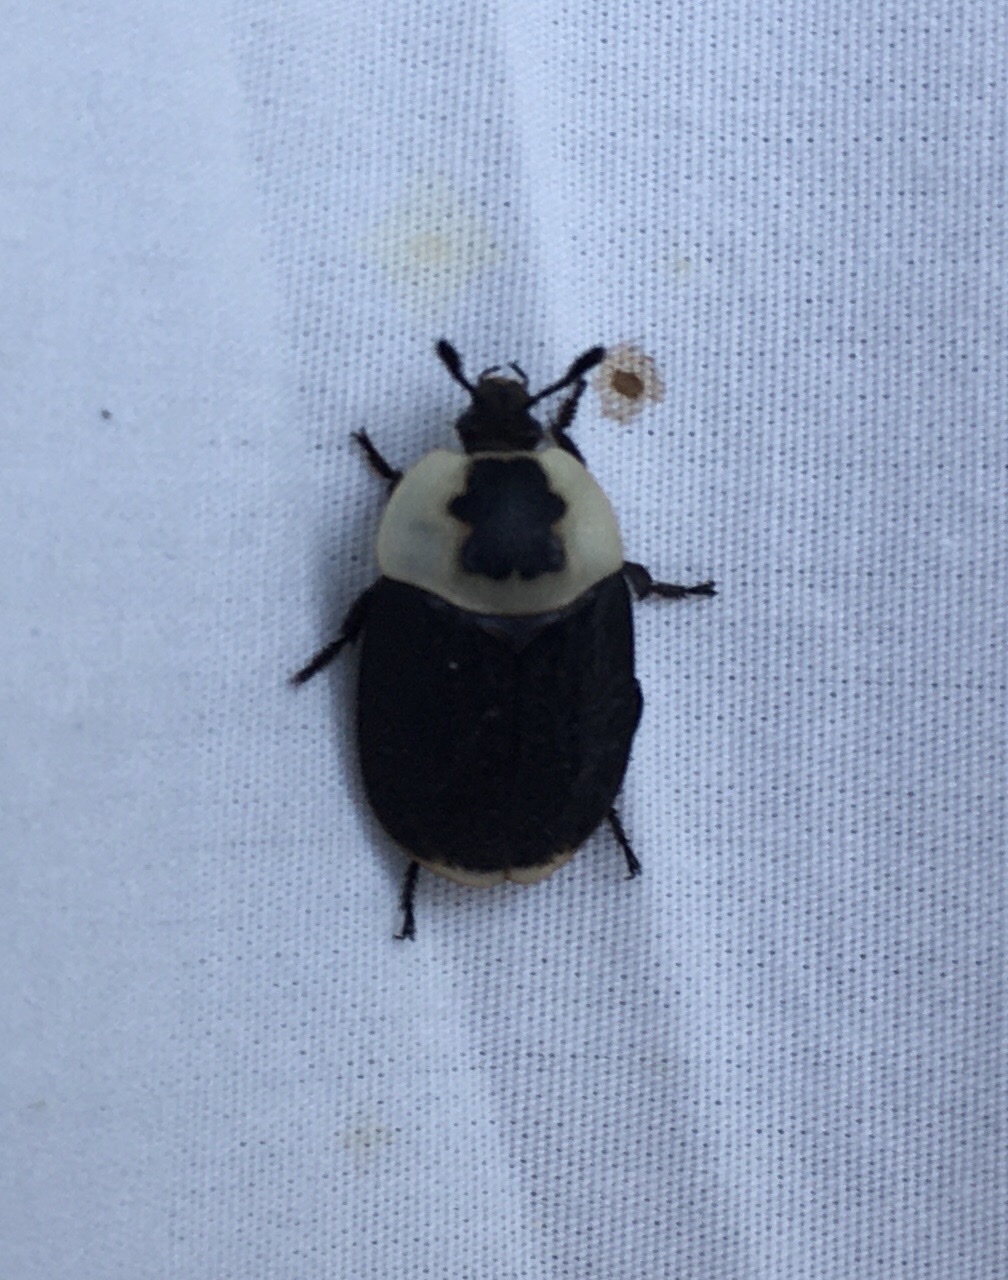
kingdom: Animalia
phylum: Arthropoda
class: Insecta
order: Coleoptera
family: Staphylinidae
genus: Necrophila
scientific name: Necrophila americana
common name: American carrion beetle
